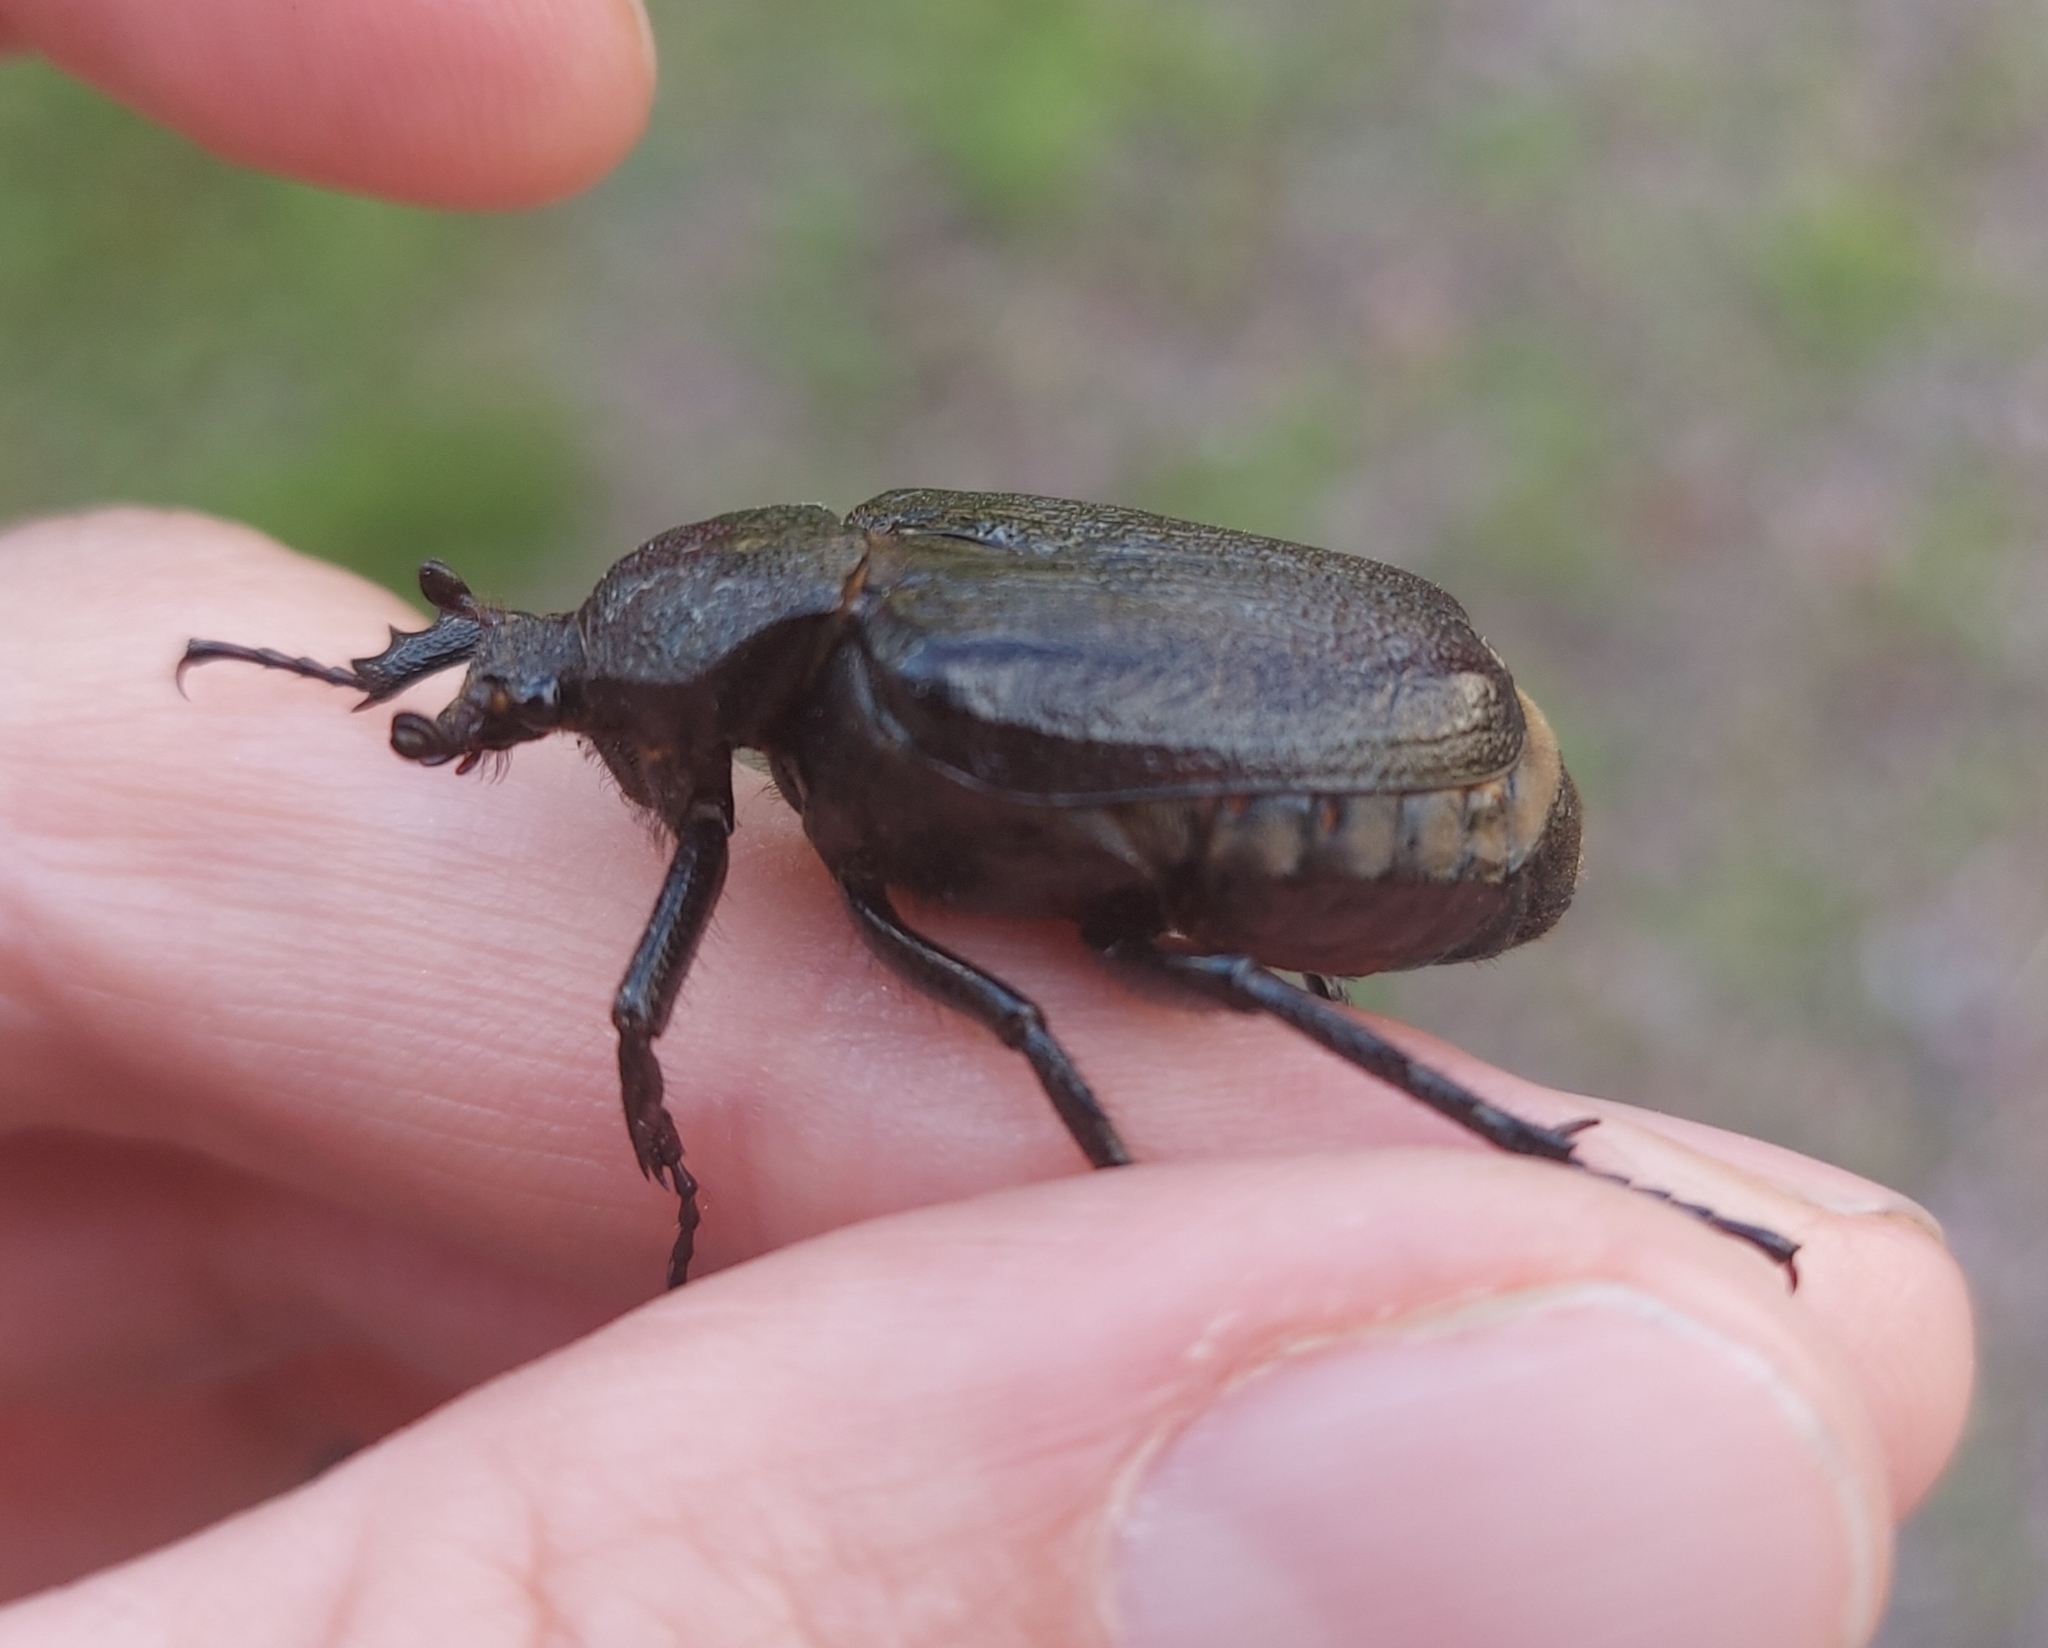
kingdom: Animalia
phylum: Arthropoda
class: Insecta
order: Coleoptera
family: Scarabaeidae
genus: Osmoderma
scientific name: Osmoderma scabra
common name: Rough hermit beetle
